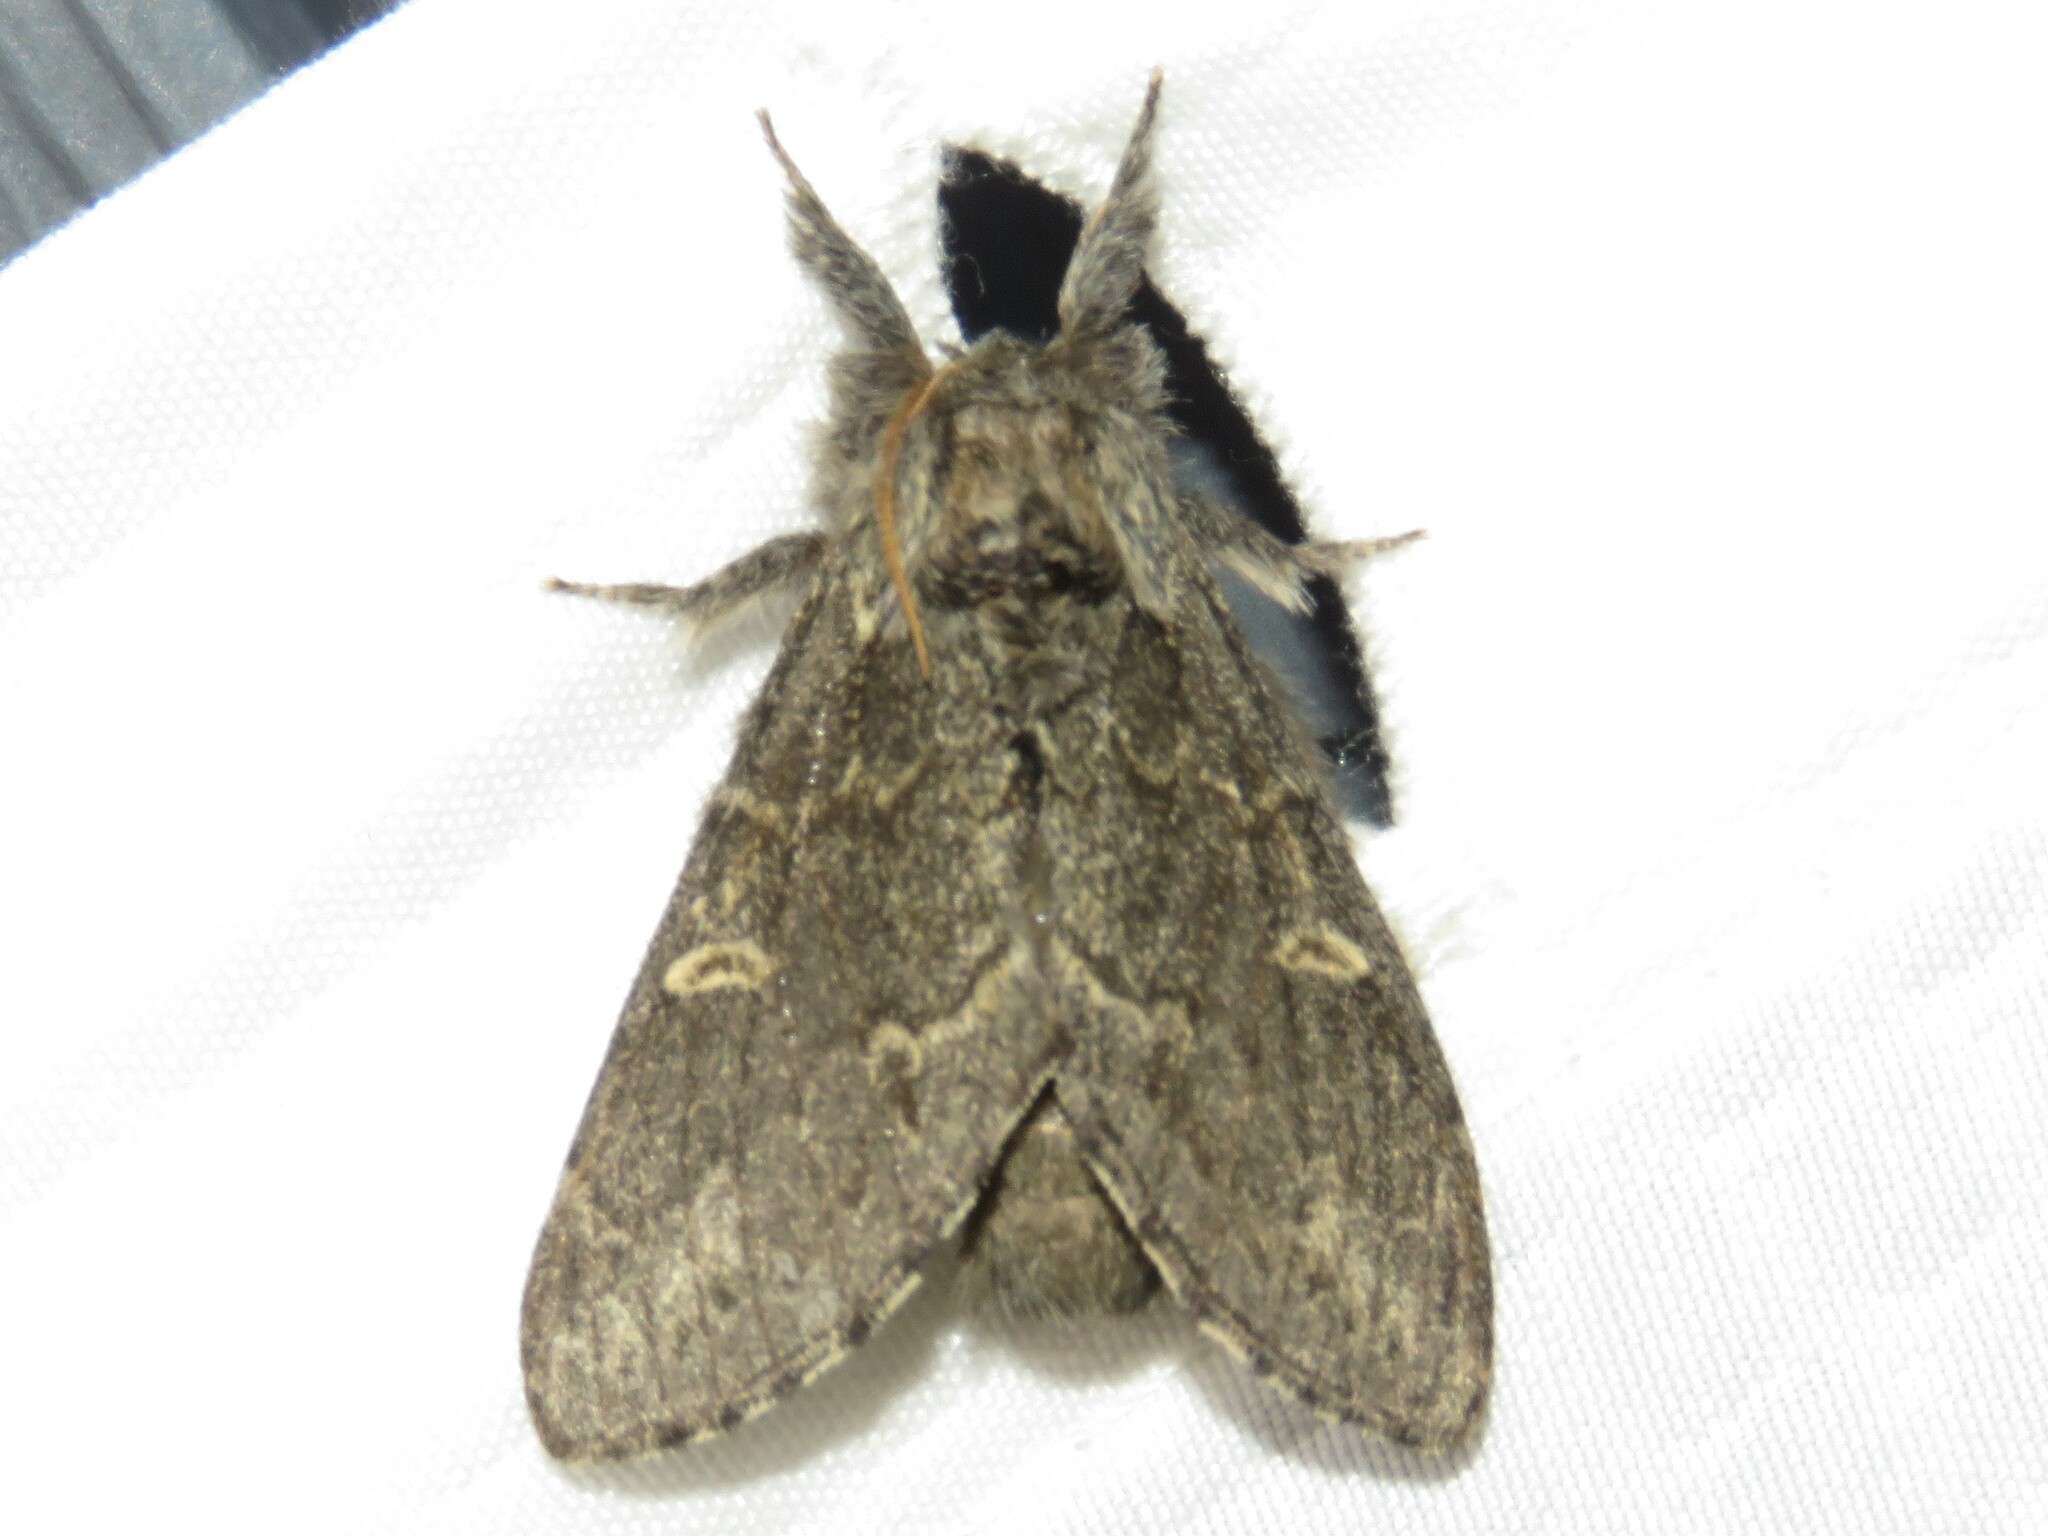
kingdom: Animalia
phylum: Arthropoda
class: Insecta
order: Lepidoptera
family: Notodontidae
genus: Notodonta
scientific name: Notodonta torva
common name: Large dark prominent
